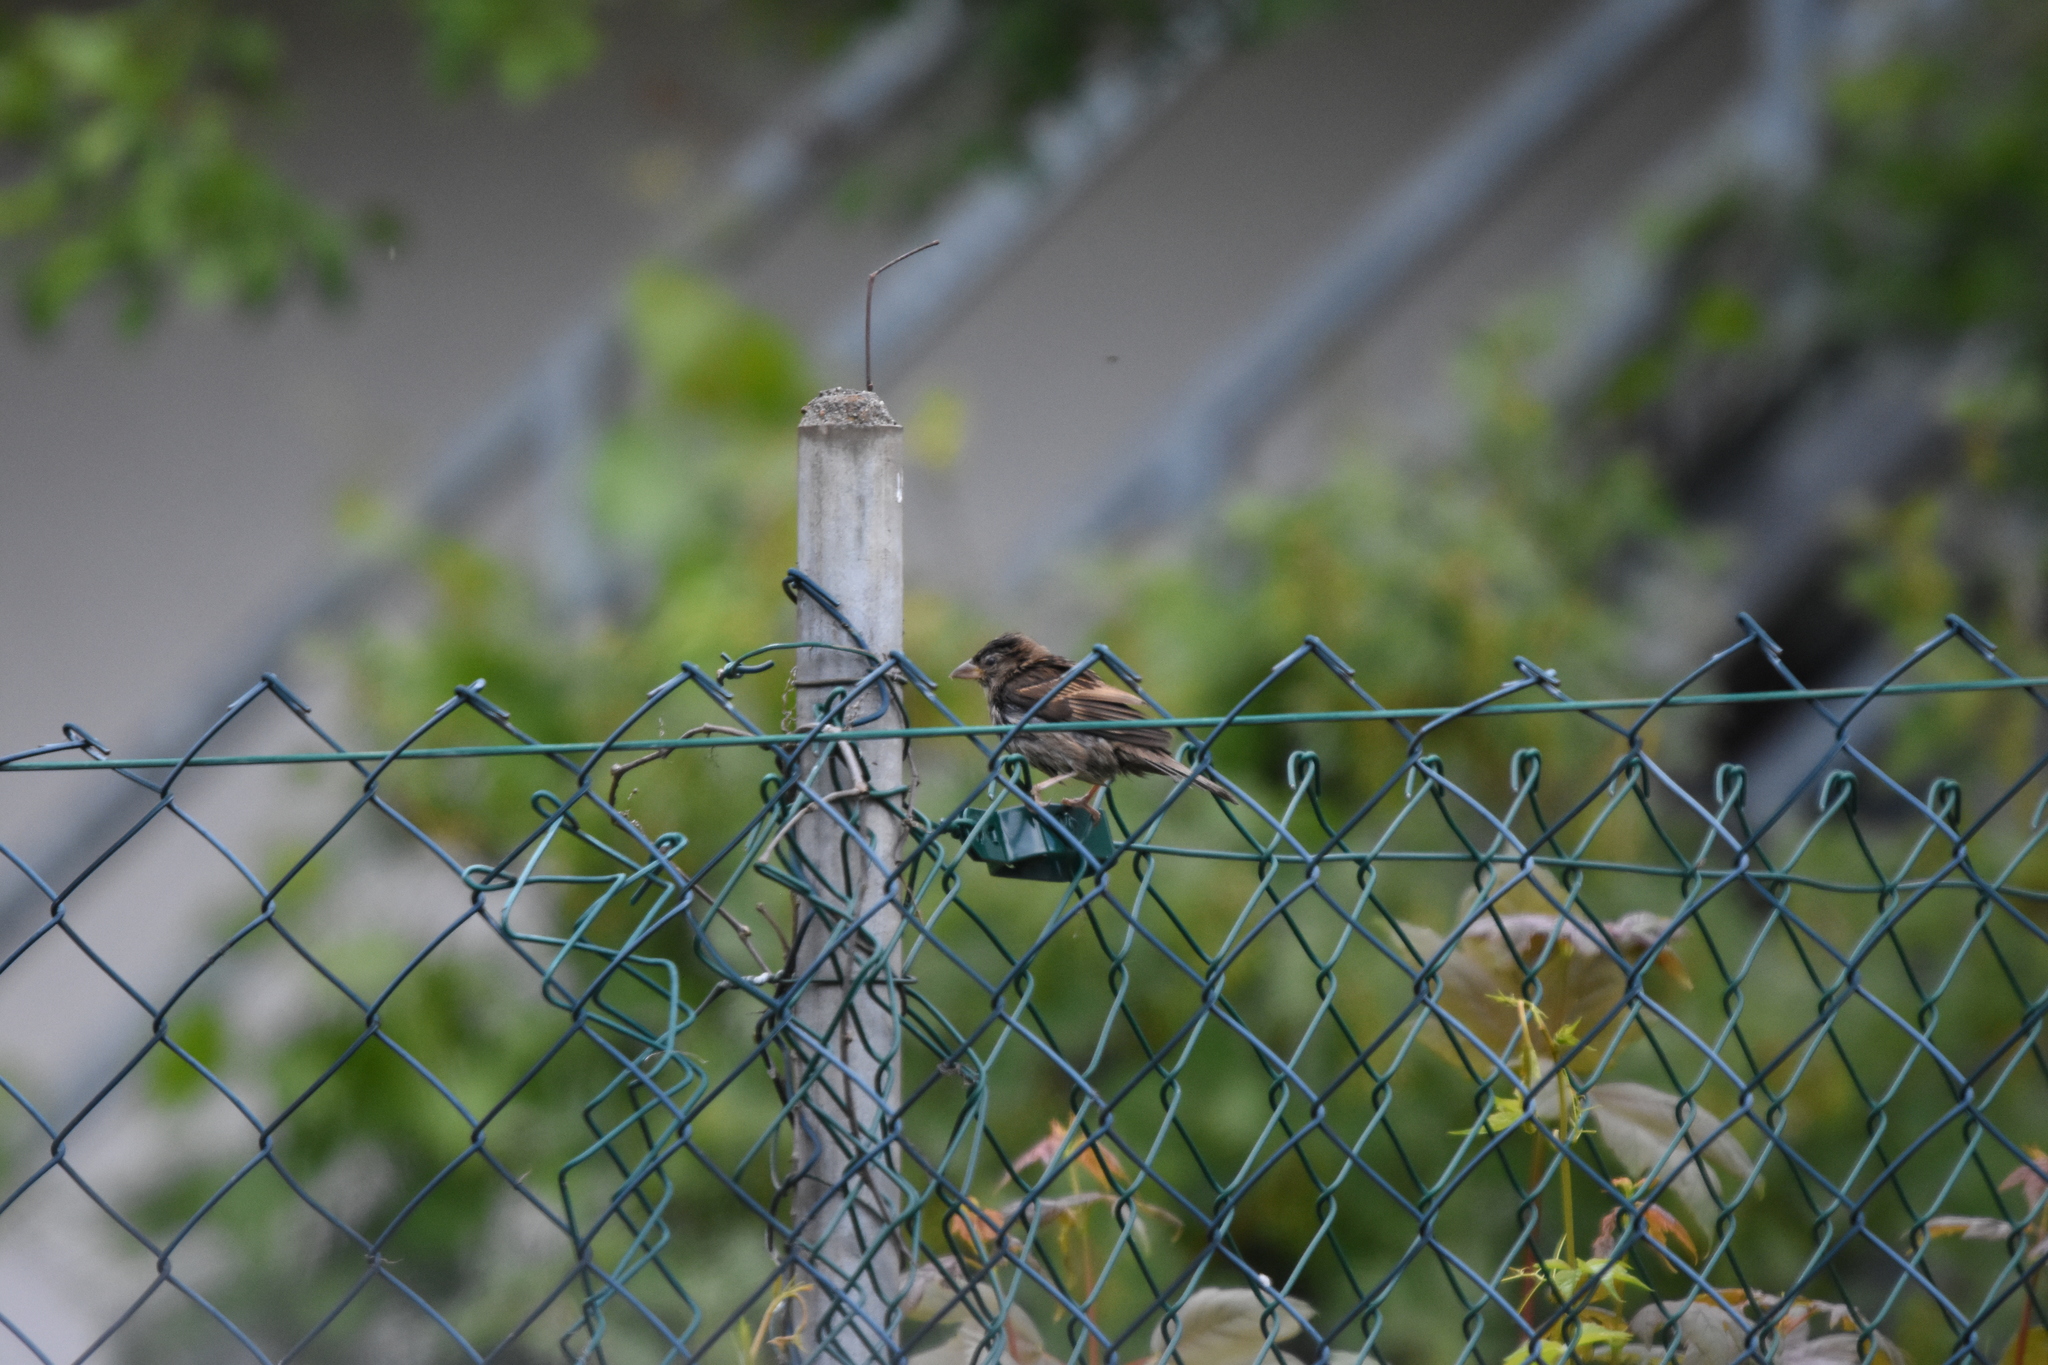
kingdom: Animalia
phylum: Chordata
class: Aves
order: Passeriformes
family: Passeridae
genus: Passer
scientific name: Passer domesticus
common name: House sparrow
